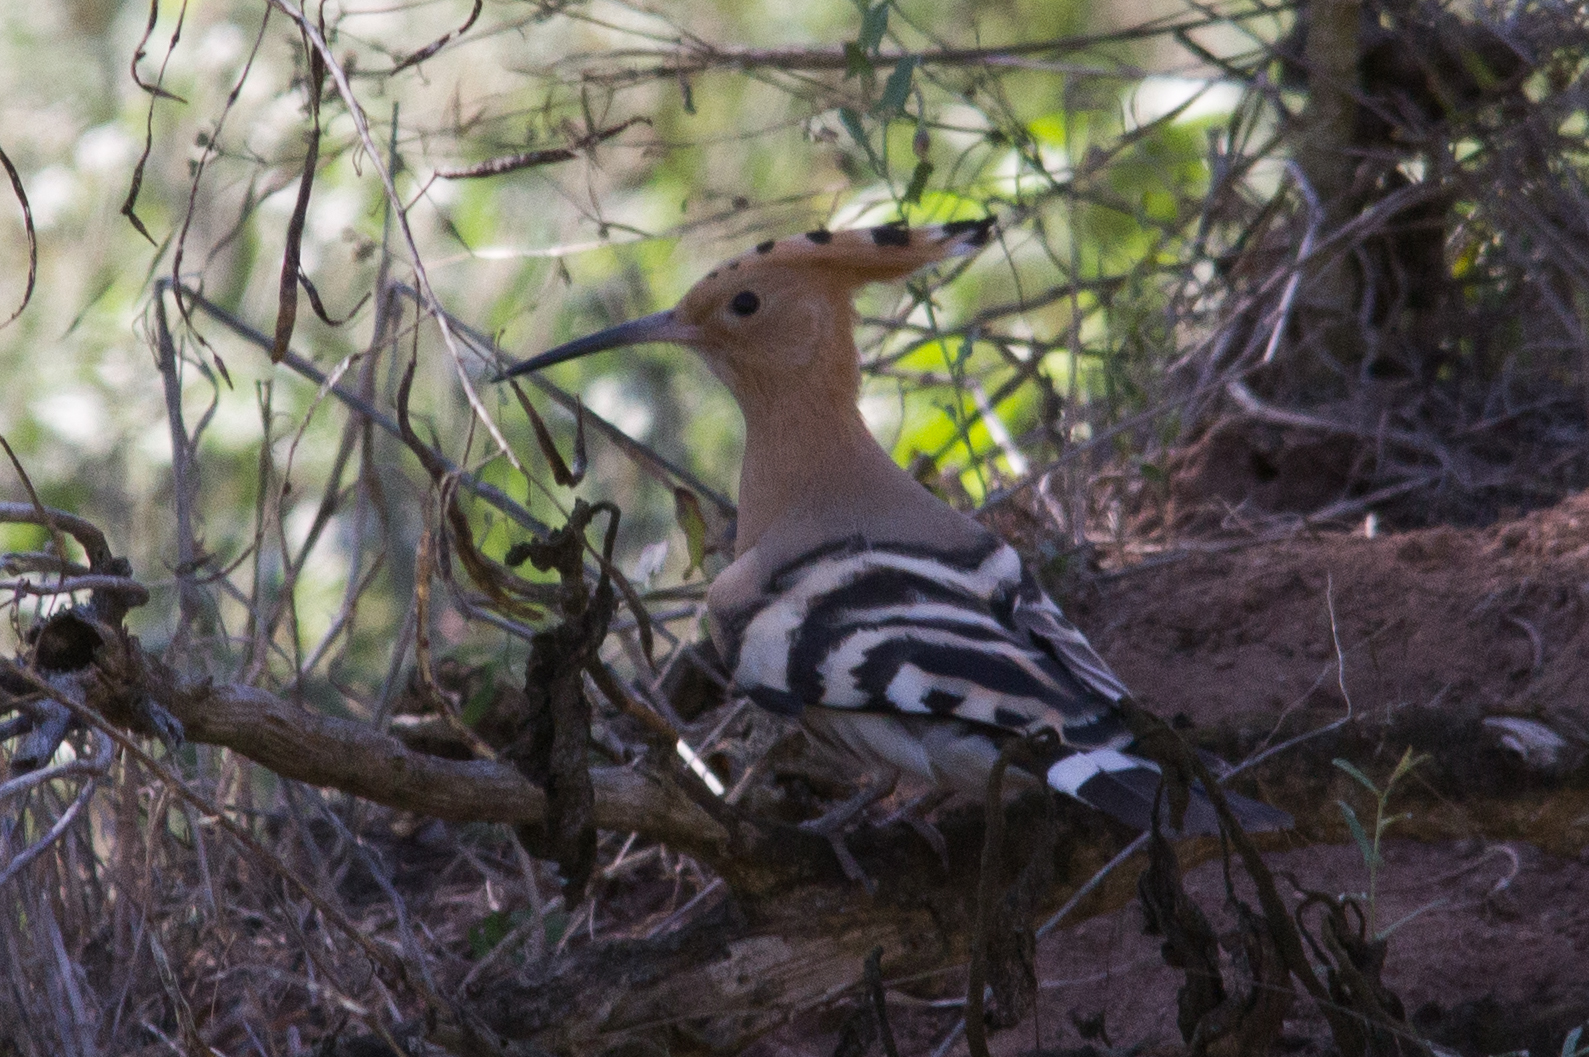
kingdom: Animalia
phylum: Chordata
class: Aves
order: Bucerotiformes
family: Upupidae
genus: Upupa
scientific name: Upupa epops
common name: Eurasian hoopoe
